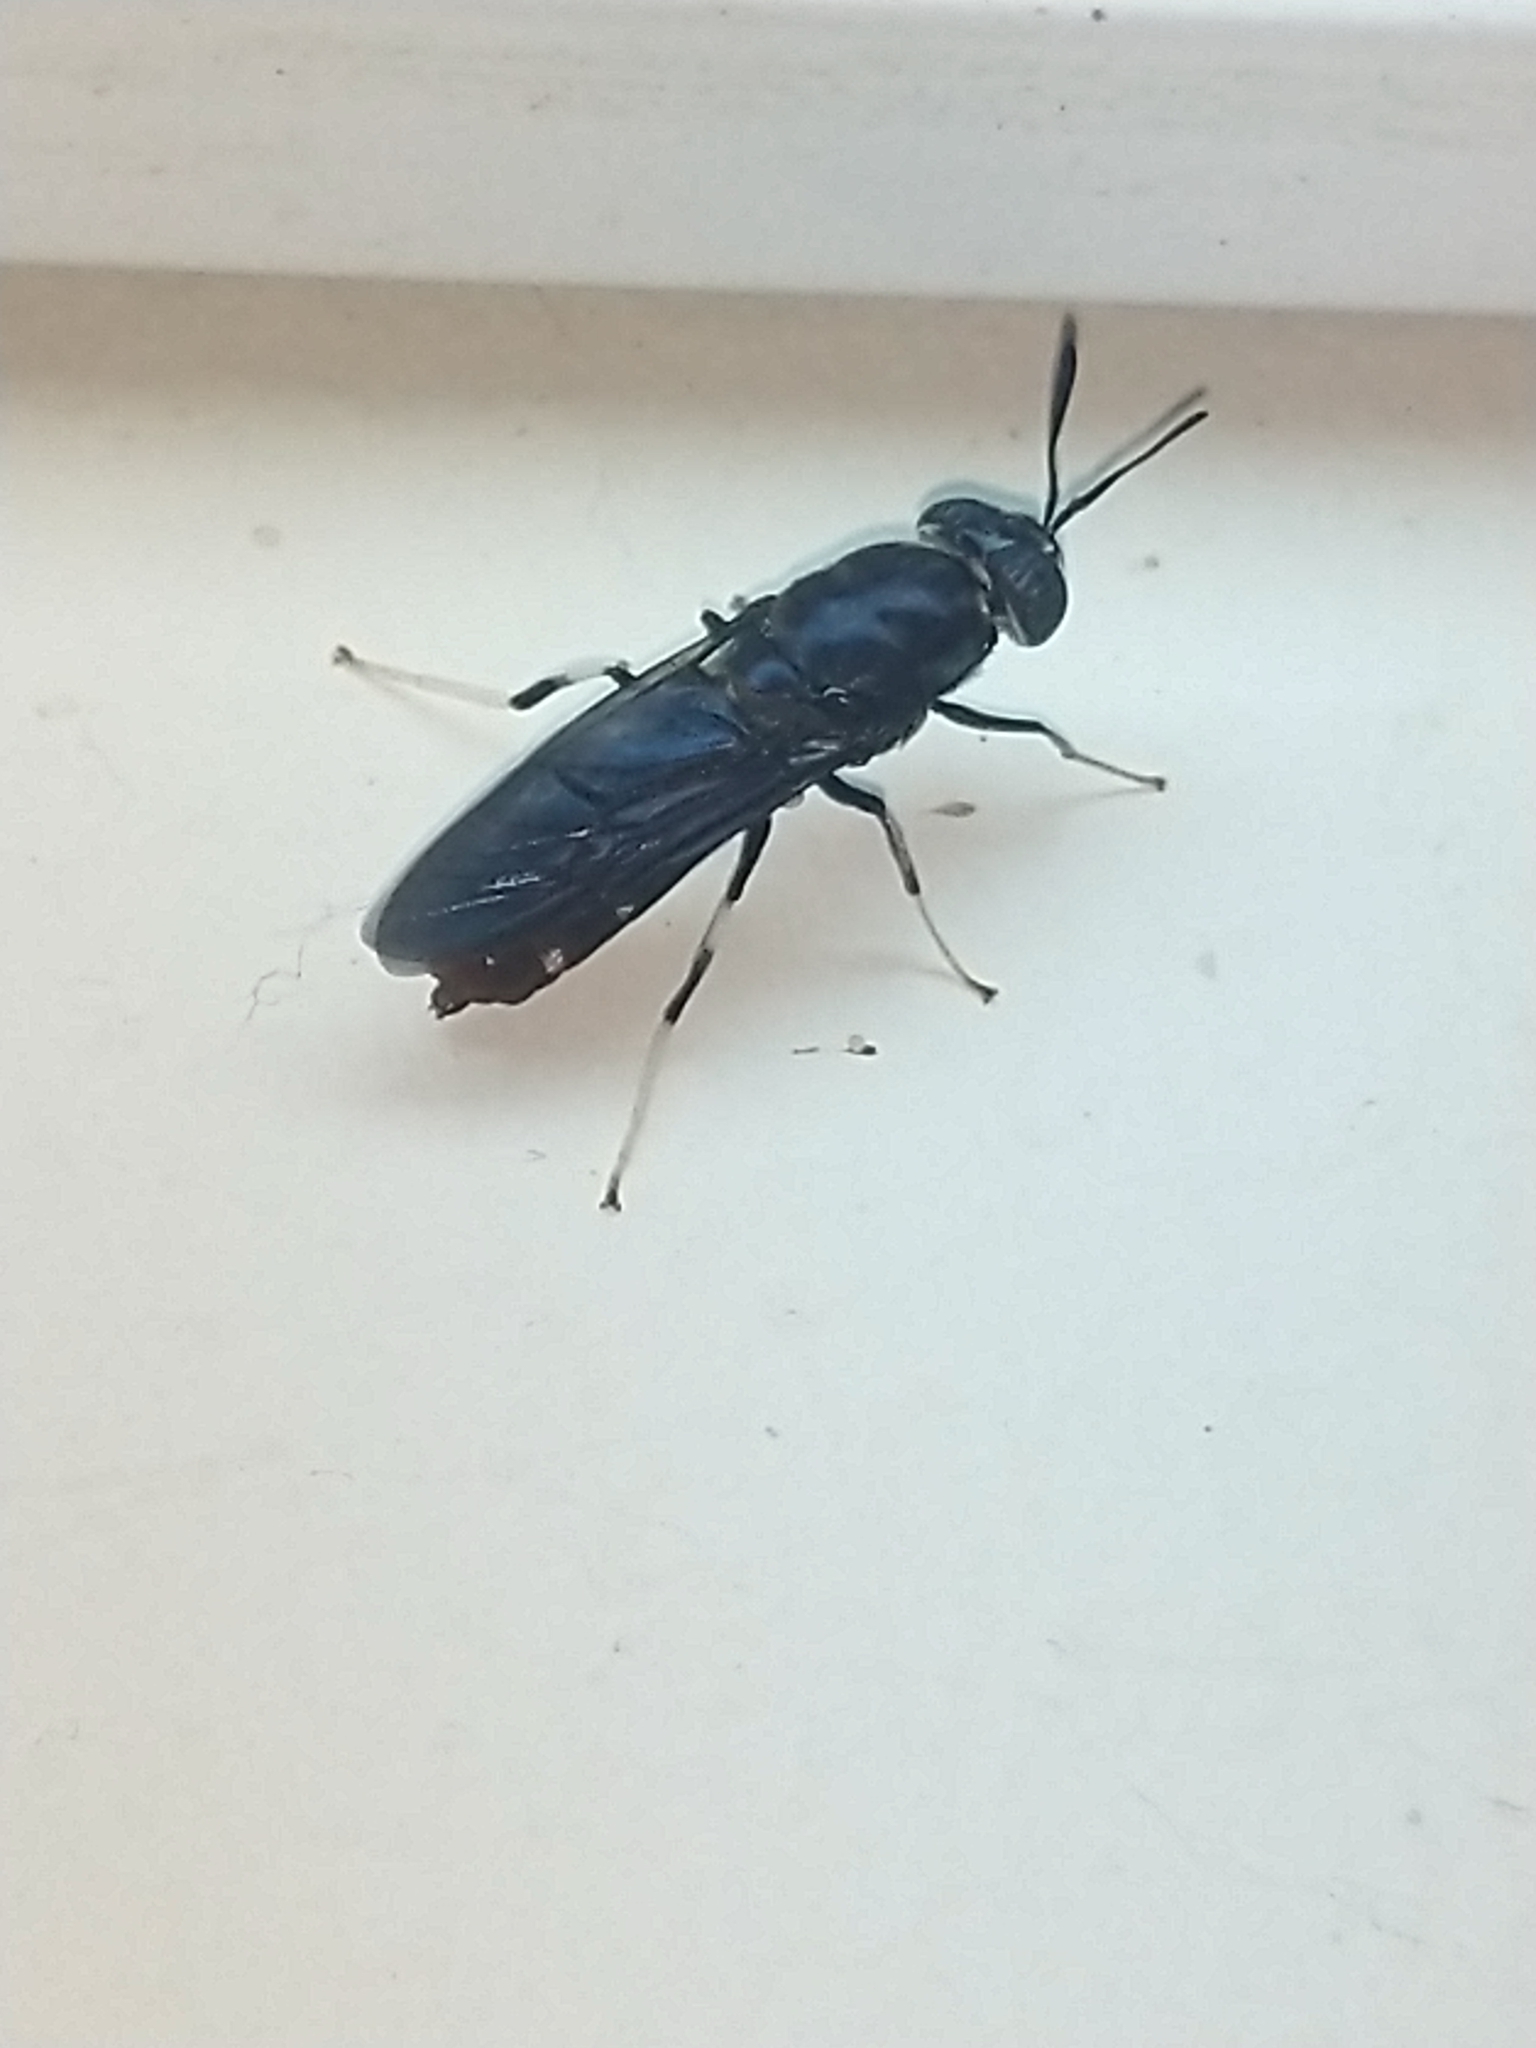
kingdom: Animalia
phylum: Arthropoda
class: Insecta
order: Diptera
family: Stratiomyidae
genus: Hermetia
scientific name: Hermetia illucens
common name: Black soldier fly
